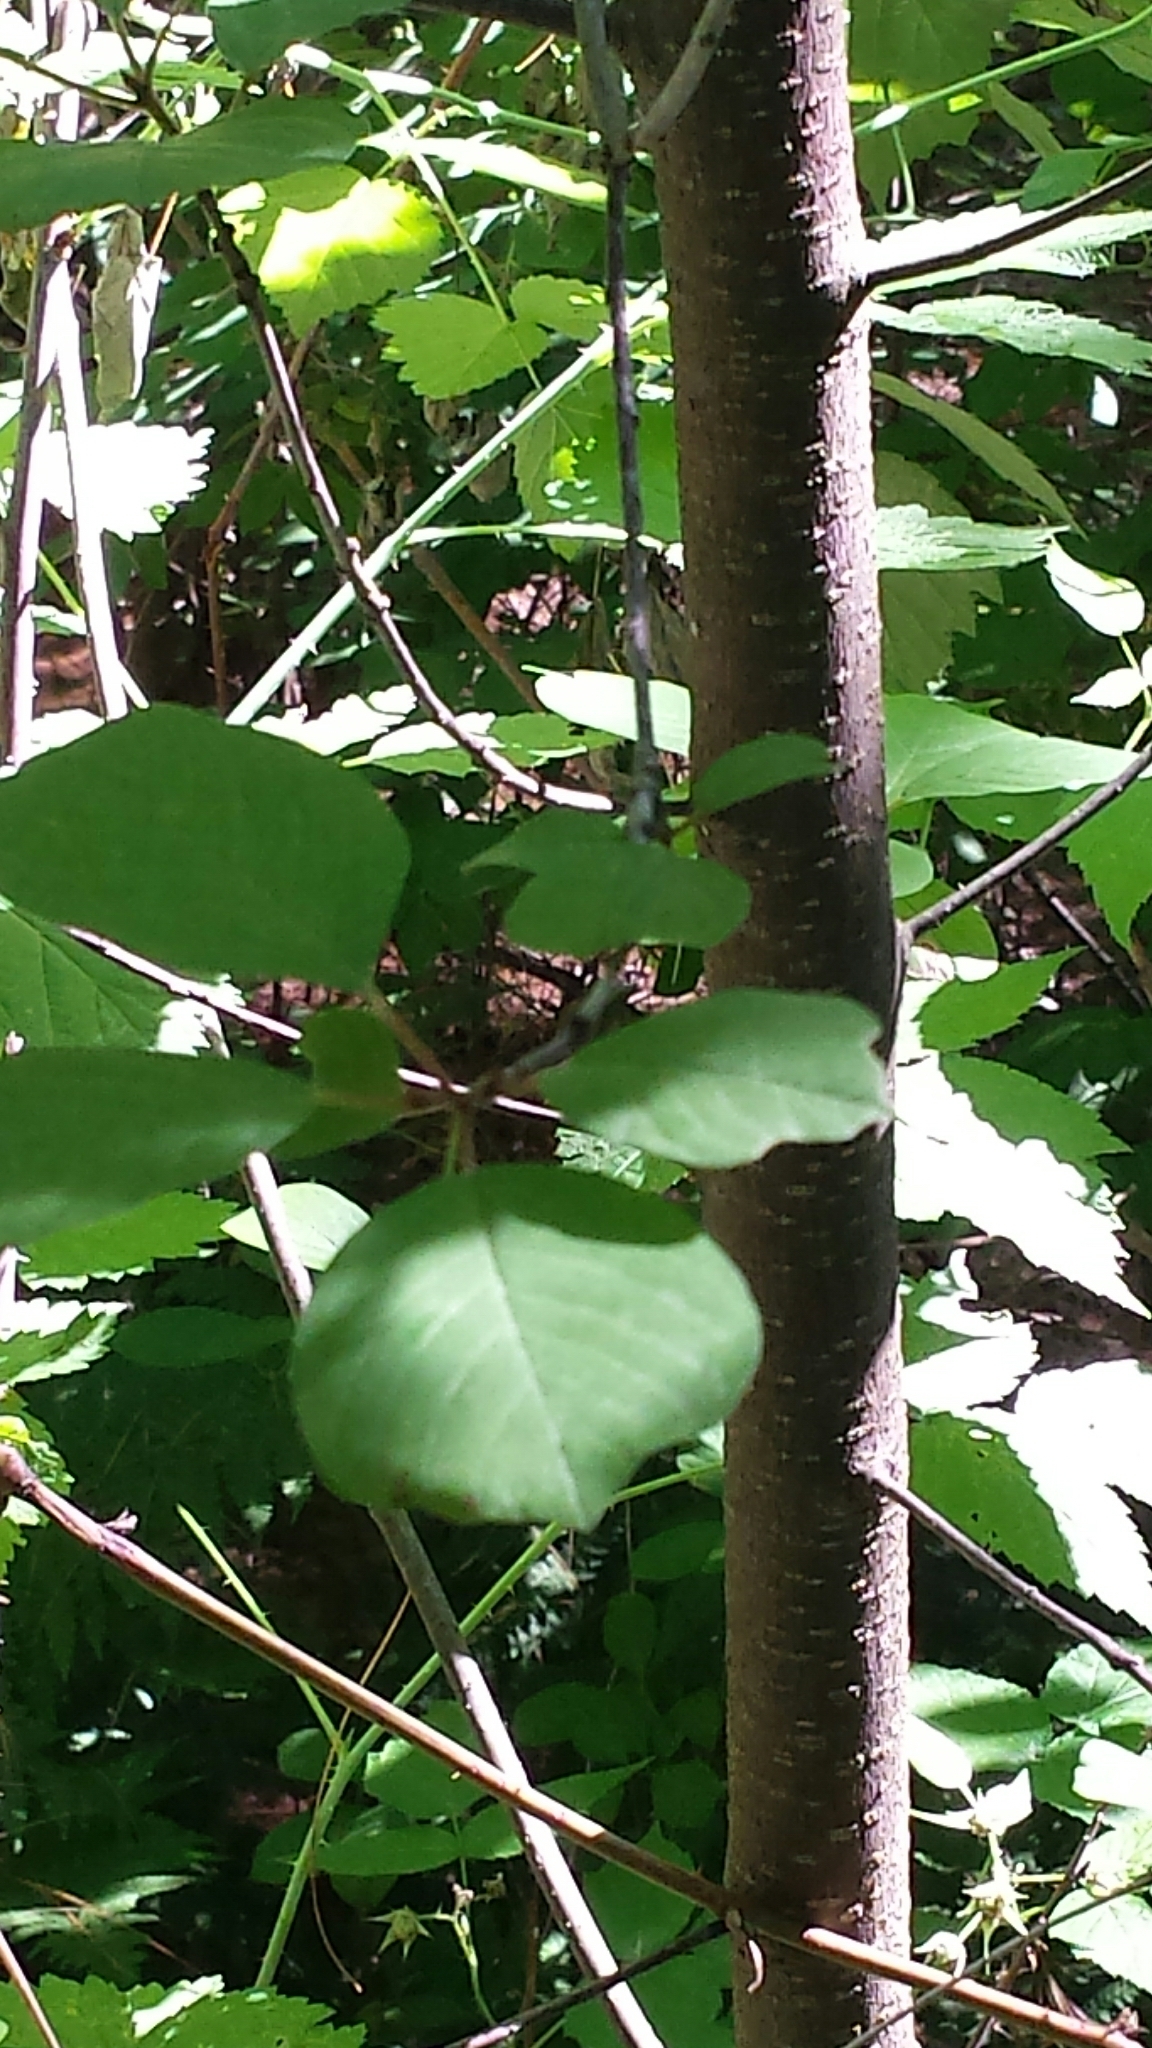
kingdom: Plantae
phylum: Tracheophyta
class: Magnoliopsida
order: Rosales
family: Rhamnaceae
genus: Frangula
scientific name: Frangula alnus
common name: Alder buckthorn
